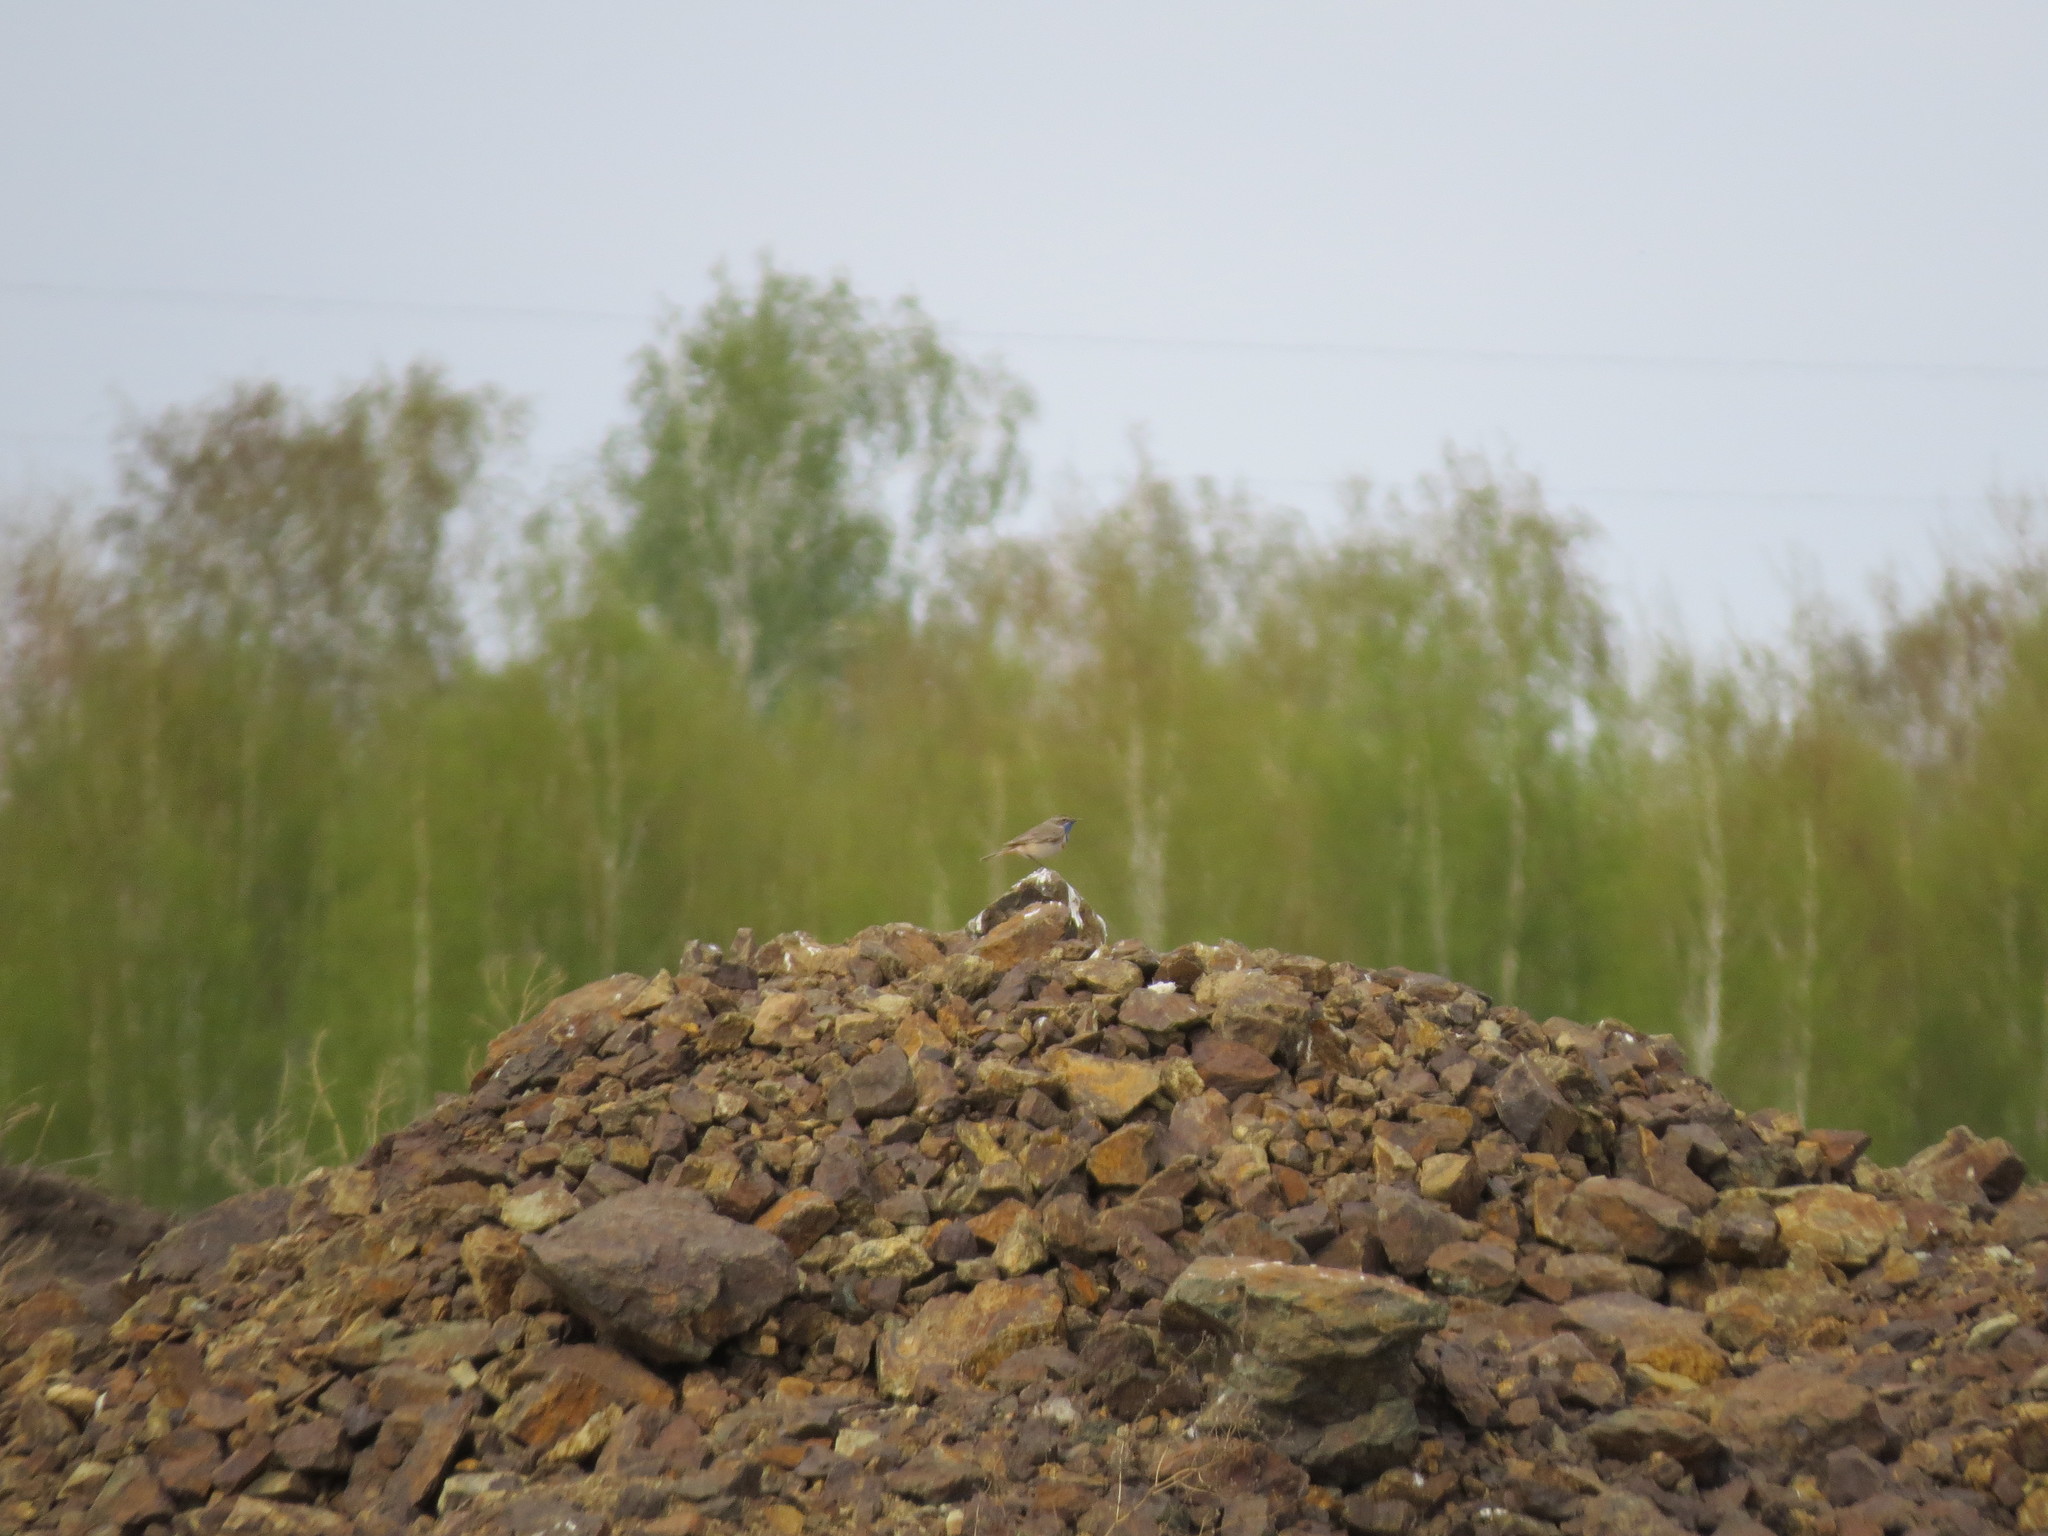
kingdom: Animalia
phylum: Chordata
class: Aves
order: Passeriformes
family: Muscicapidae
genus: Luscinia
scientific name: Luscinia svecica
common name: Bluethroat
